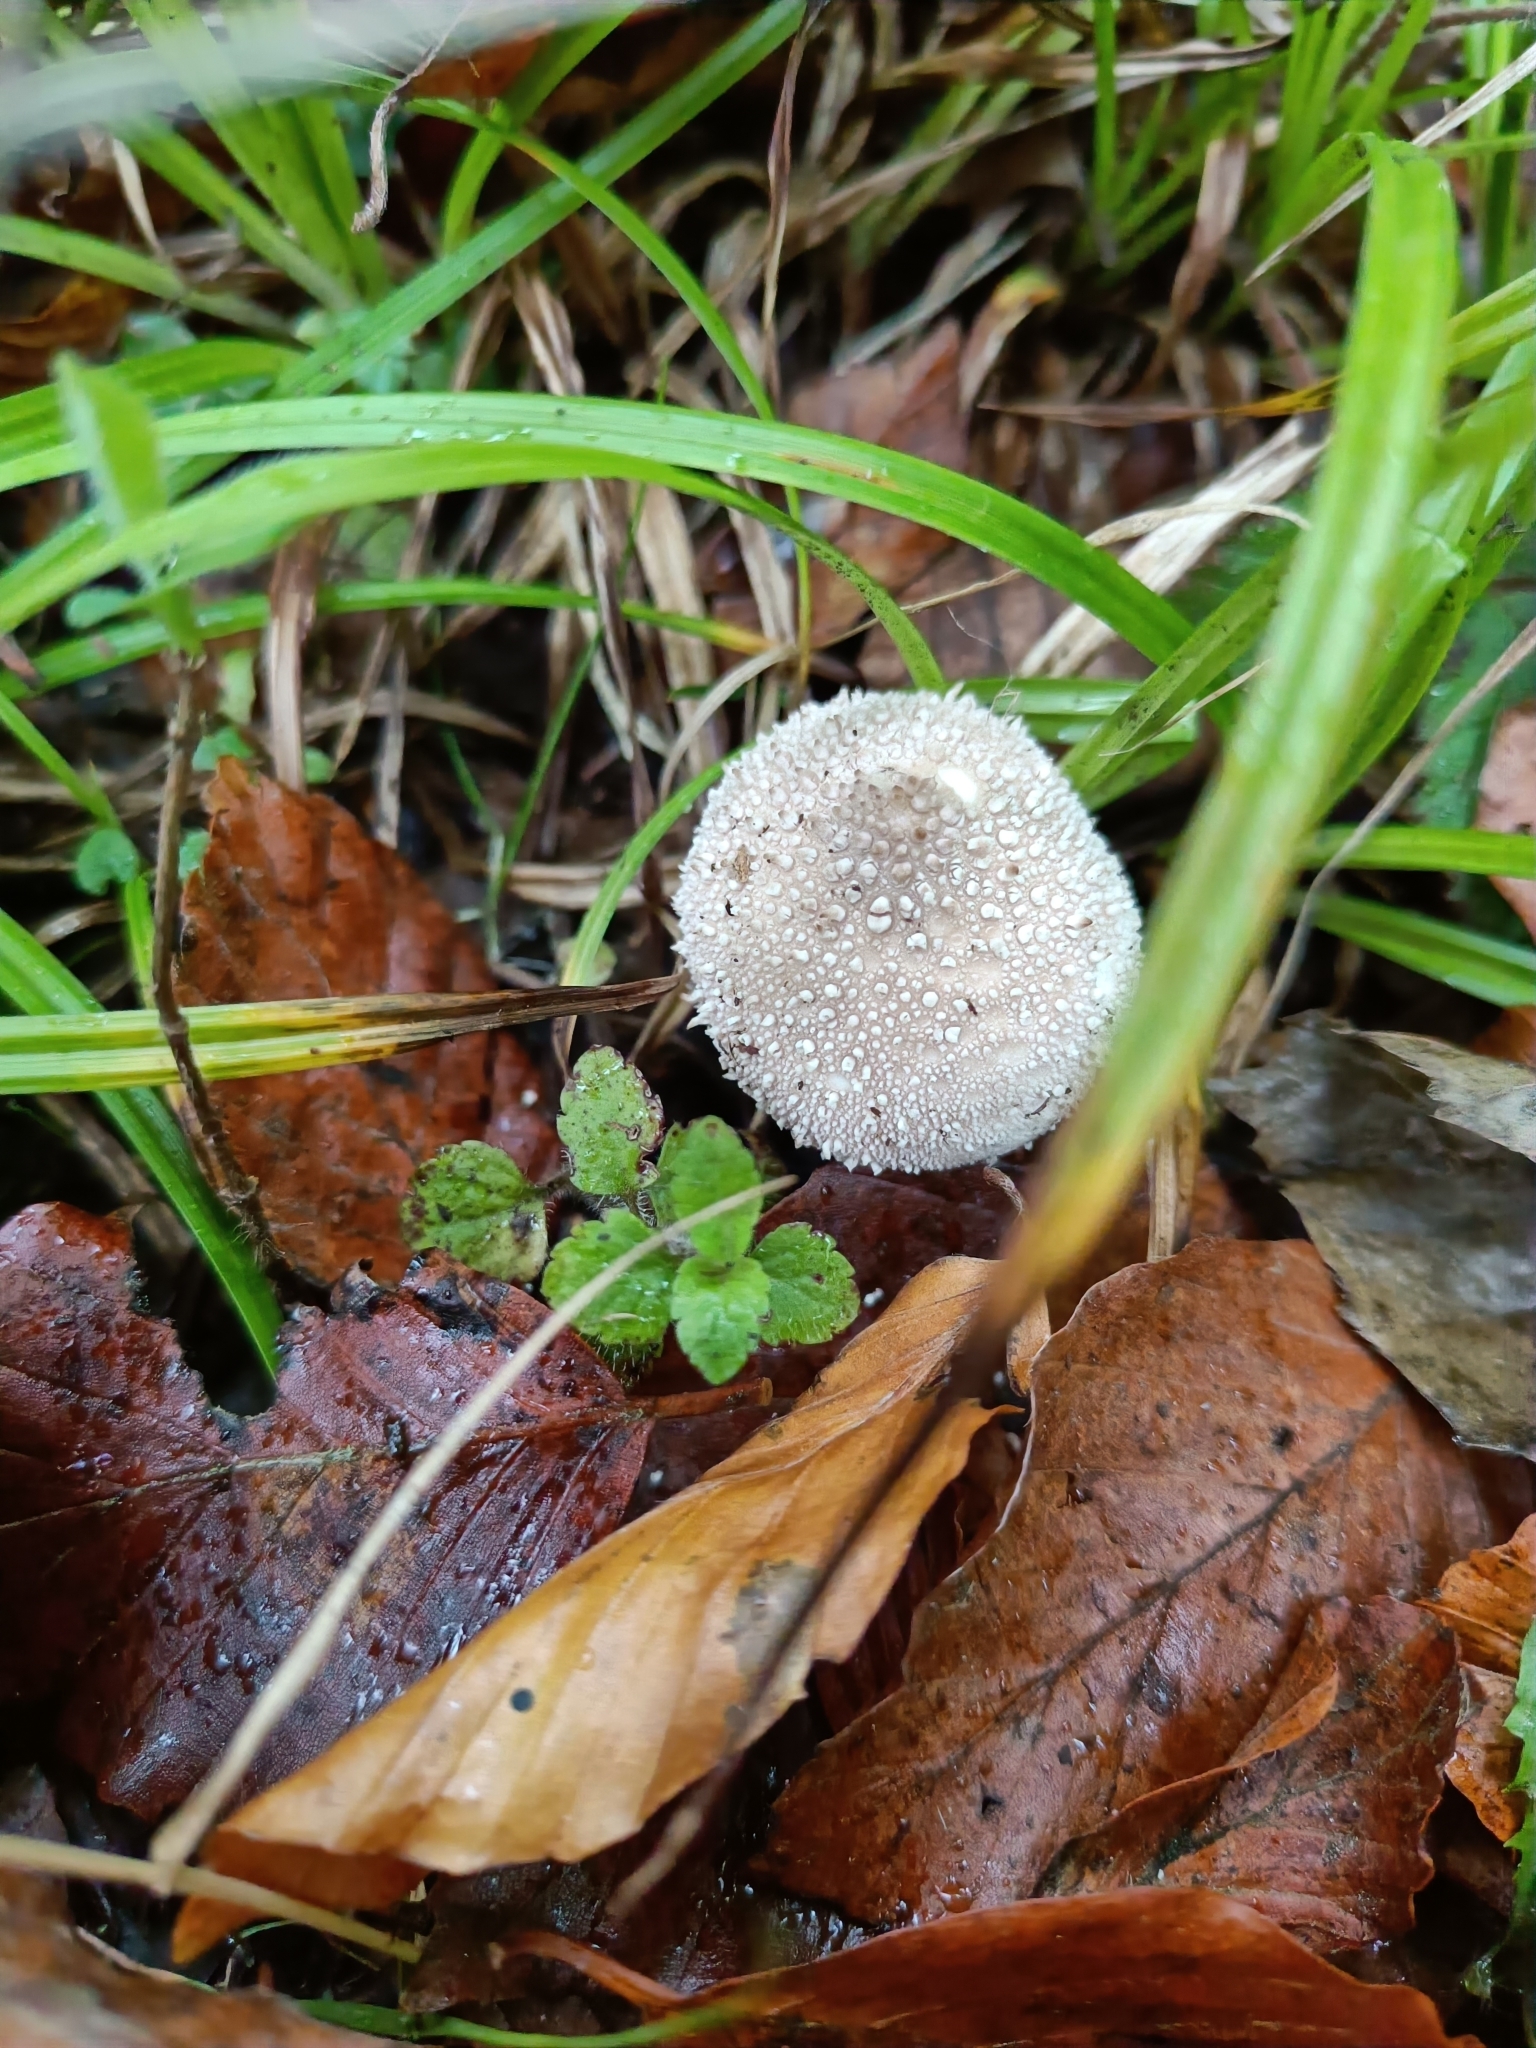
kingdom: Fungi
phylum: Basidiomycota
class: Agaricomycetes
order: Agaricales
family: Lycoperdaceae
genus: Lycoperdon
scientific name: Lycoperdon perlatum
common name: Common puffball
